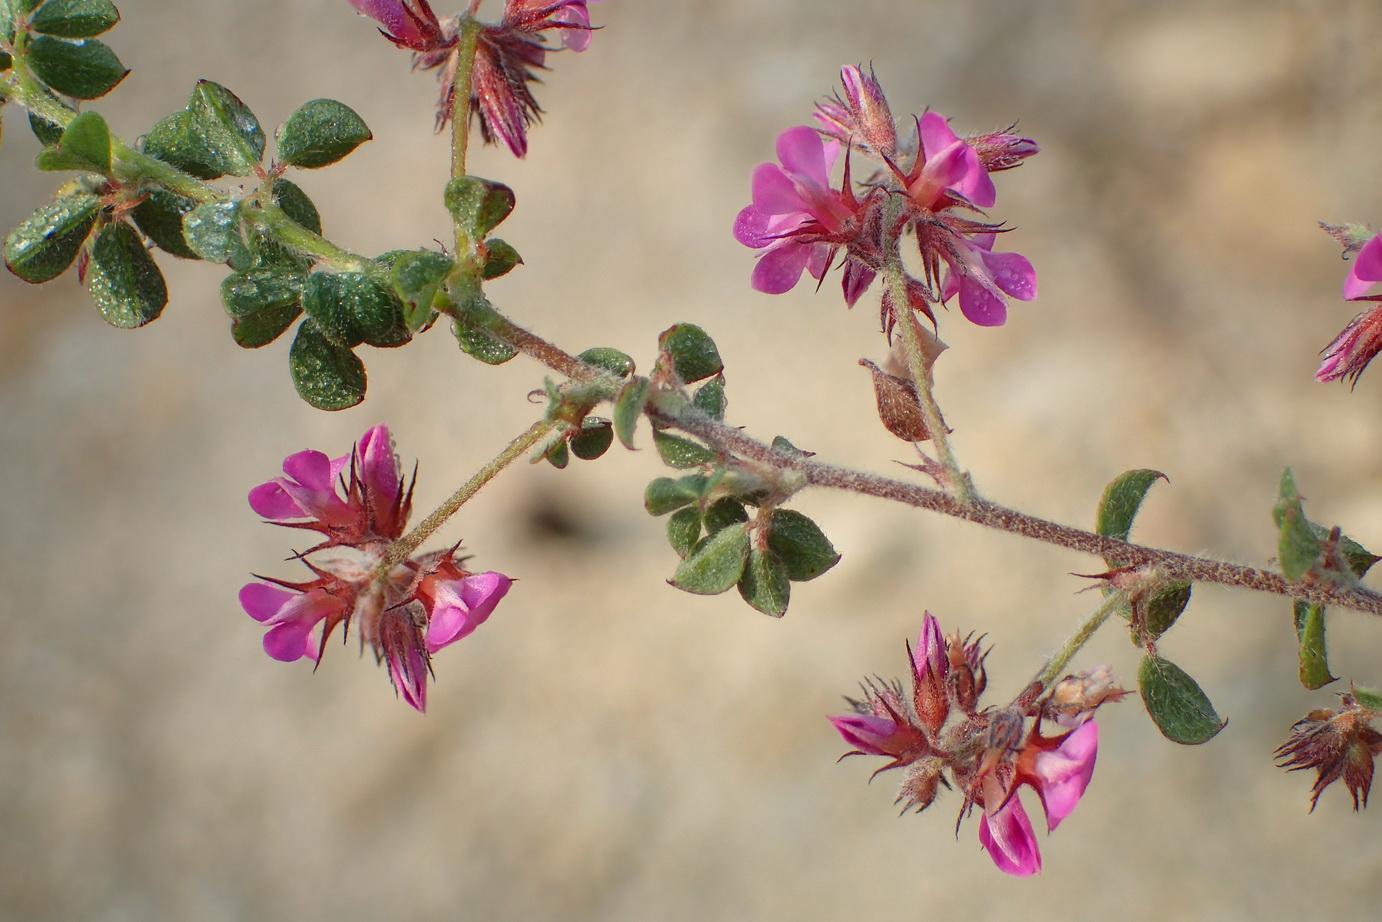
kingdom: Plantae
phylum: Tracheophyta
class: Magnoliopsida
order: Fabales
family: Fabaceae
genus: Indigofera
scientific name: Indigofera alopecuroides
